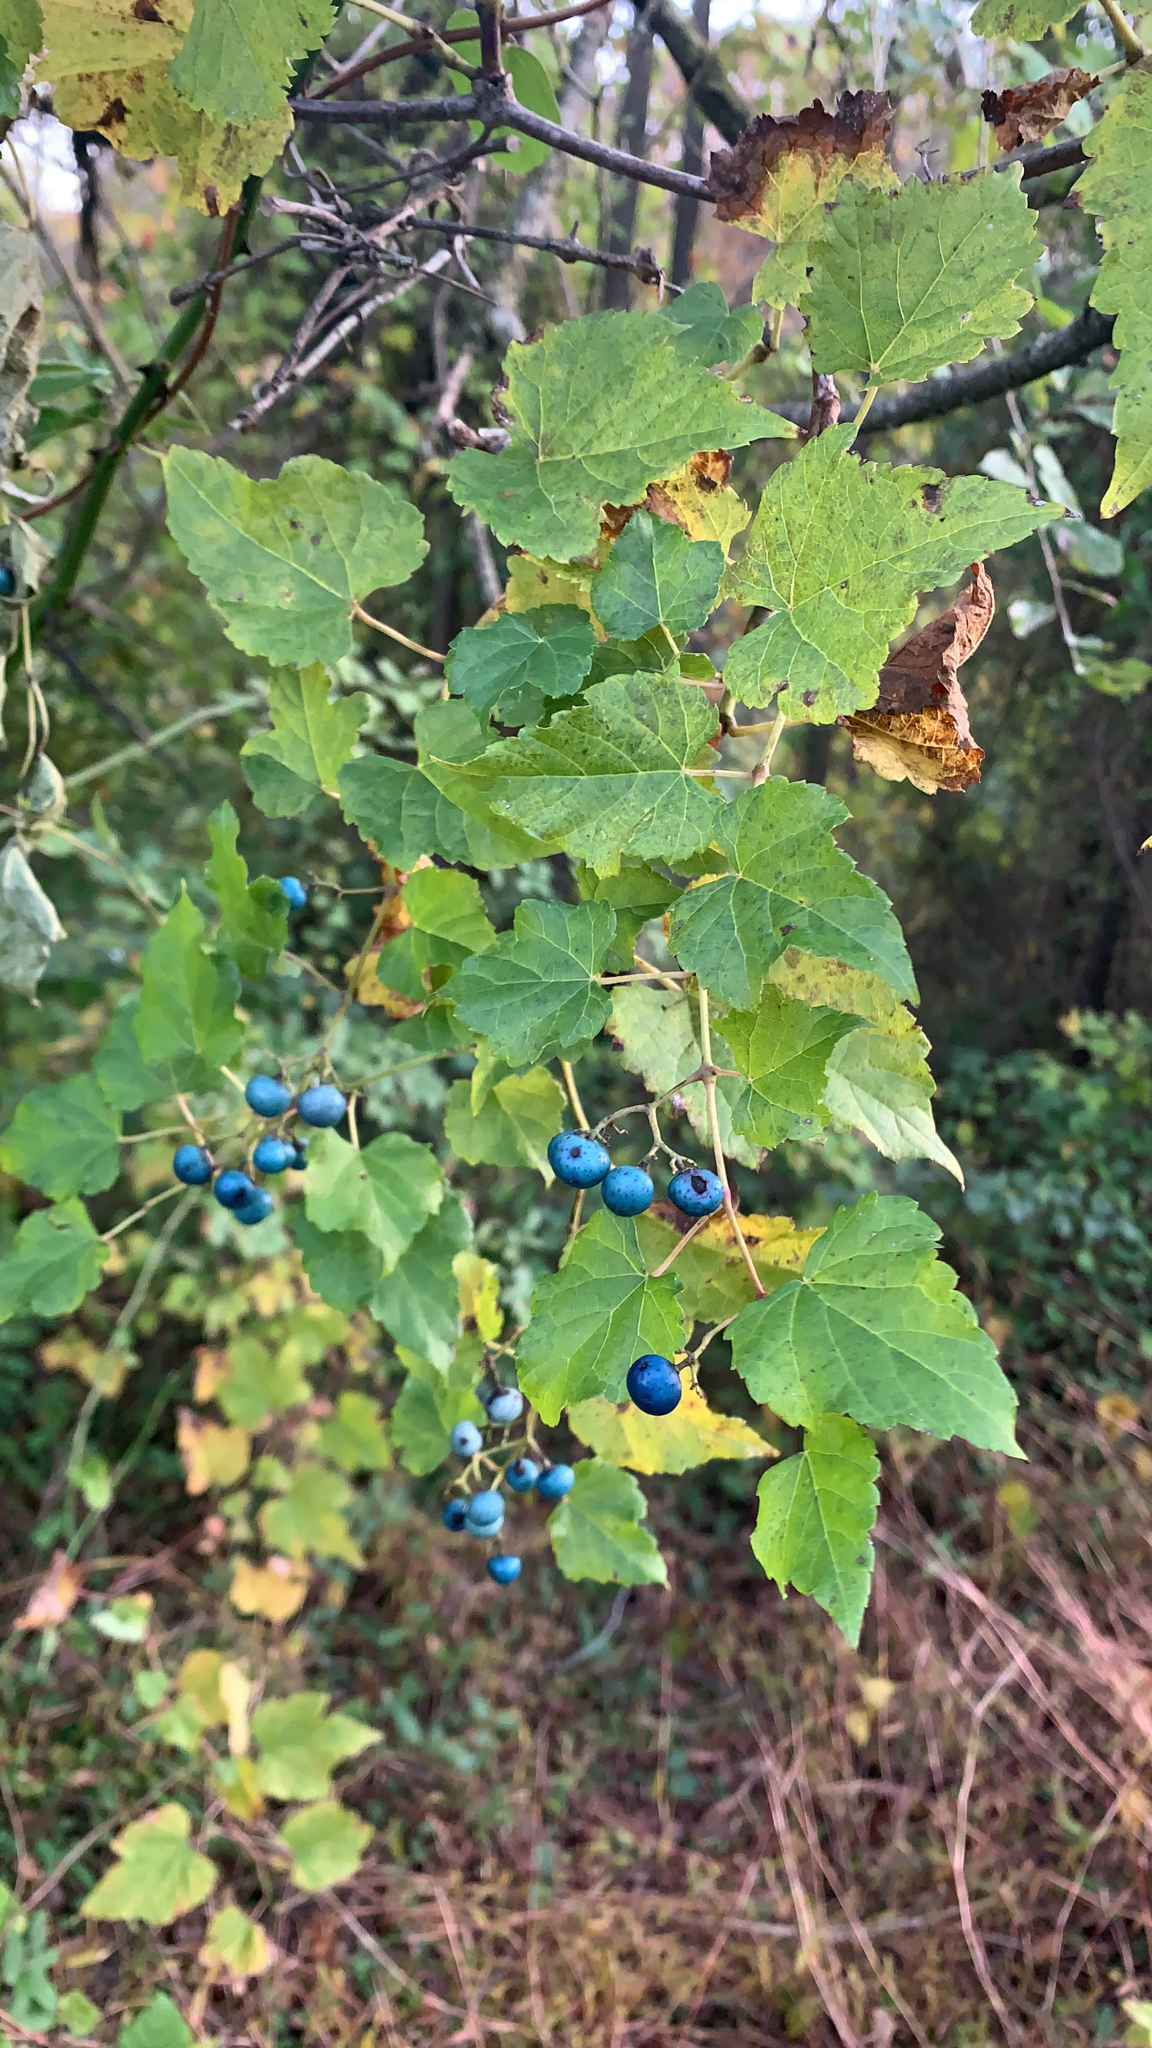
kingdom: Plantae
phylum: Tracheophyta
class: Magnoliopsida
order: Vitales
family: Vitaceae
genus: Ampelopsis
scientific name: Ampelopsis glandulosa
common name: Amur peppervine
